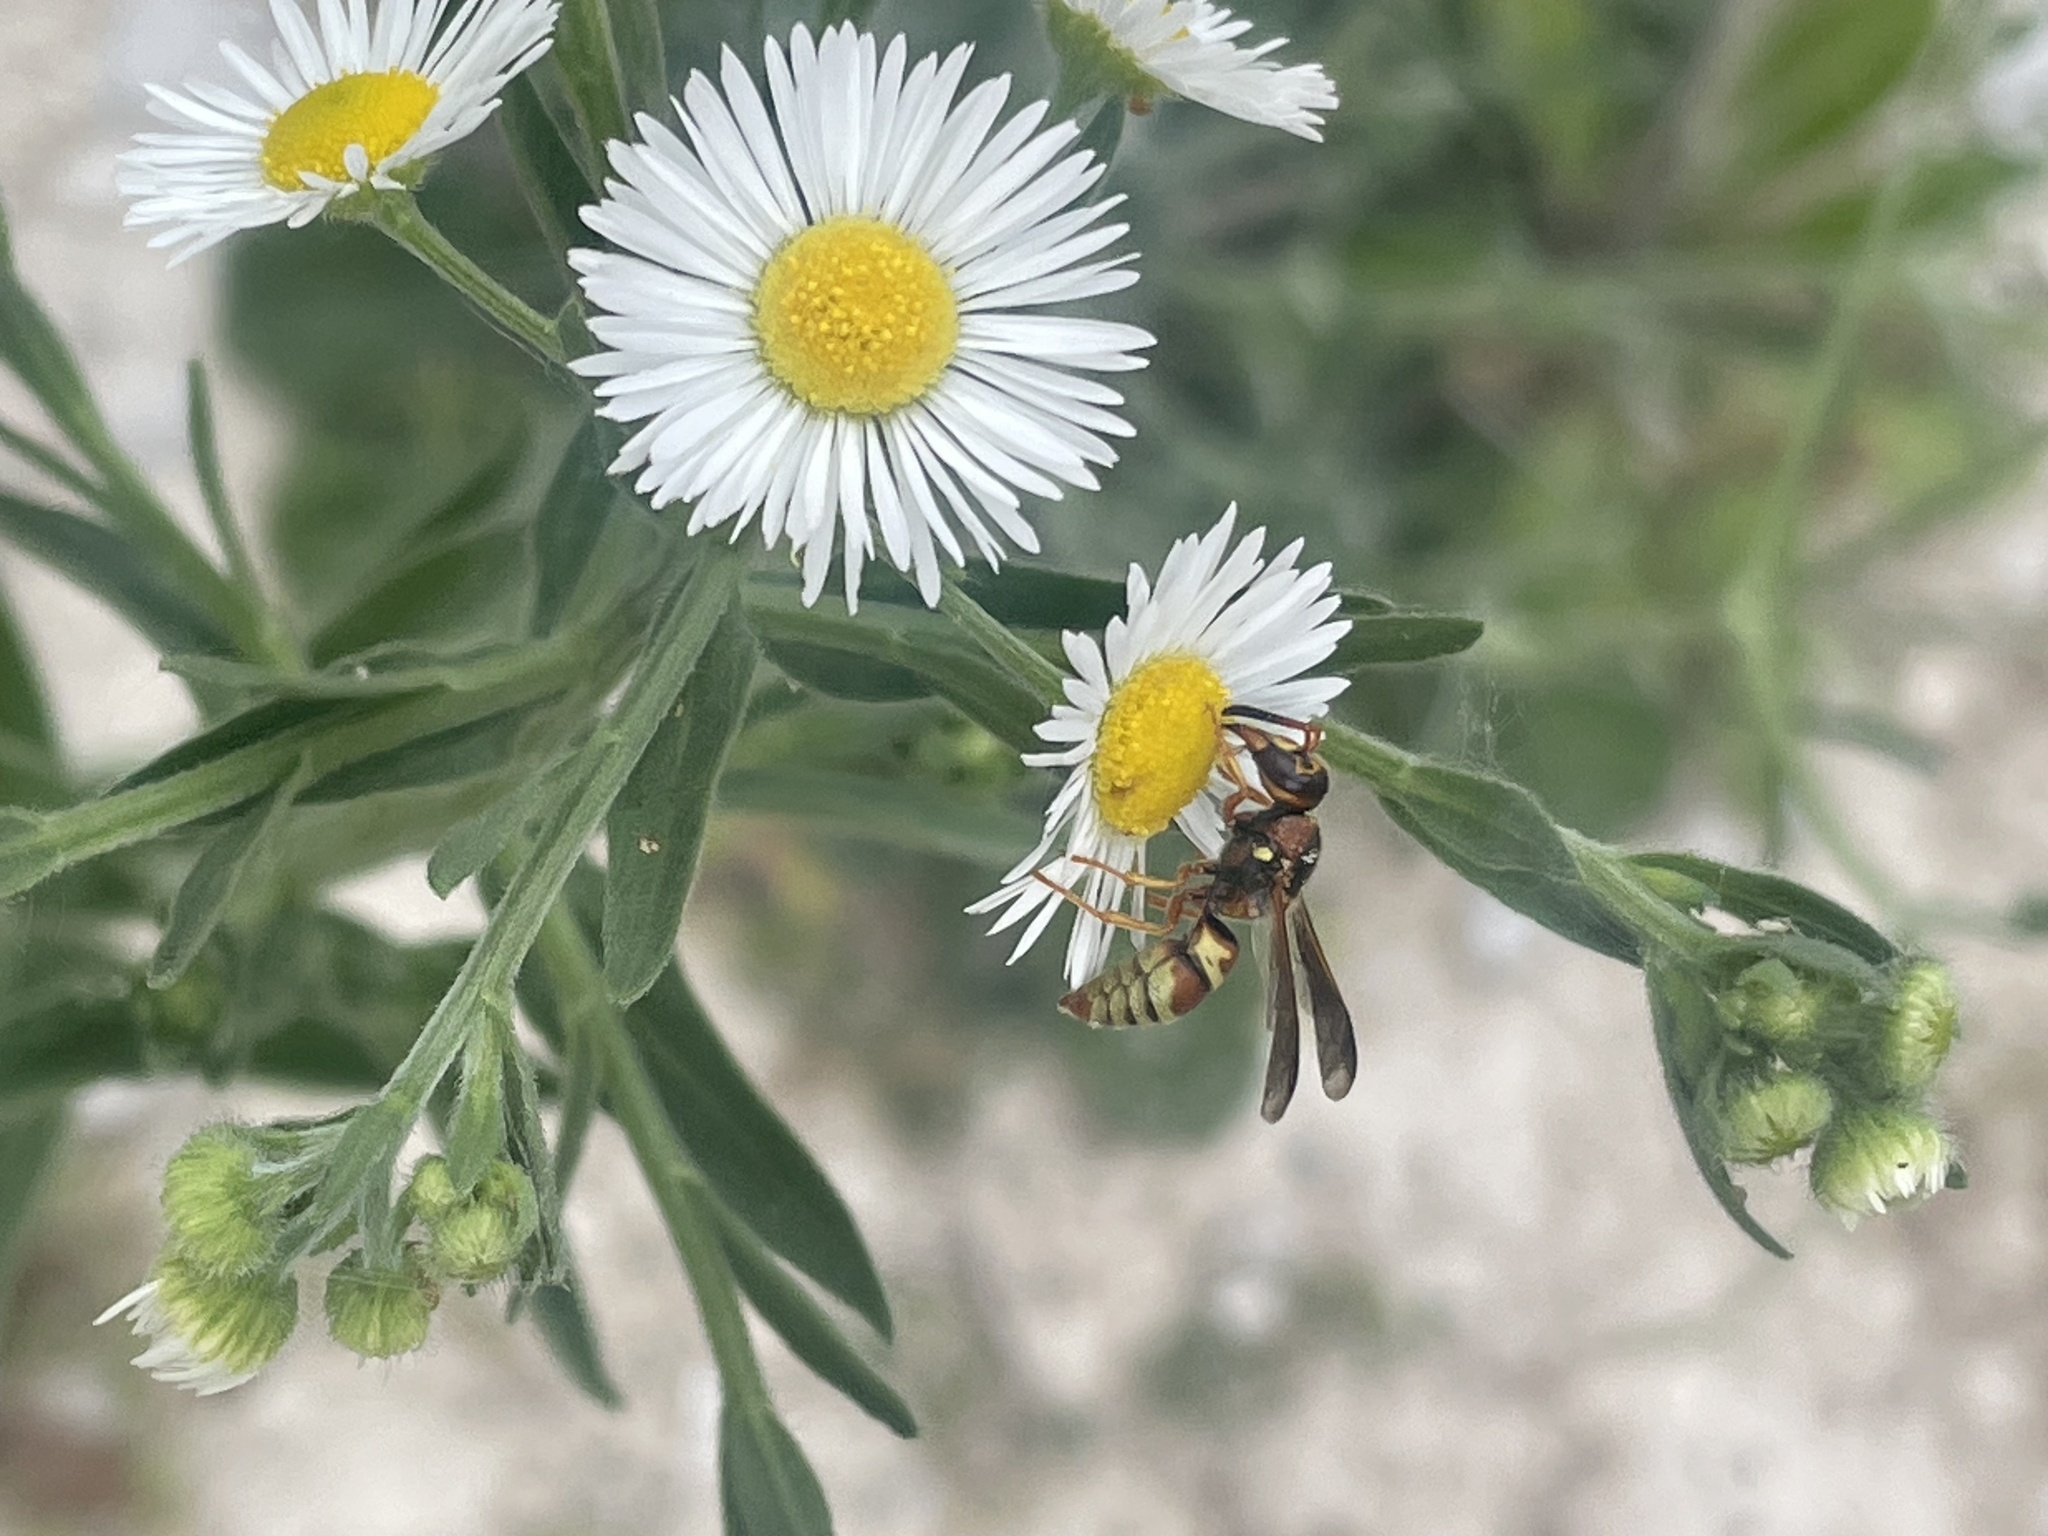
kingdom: Animalia
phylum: Arthropoda
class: Insecta
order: Hymenoptera
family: Eumenidae
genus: Euodynerus
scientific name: Euodynerus pratensis
